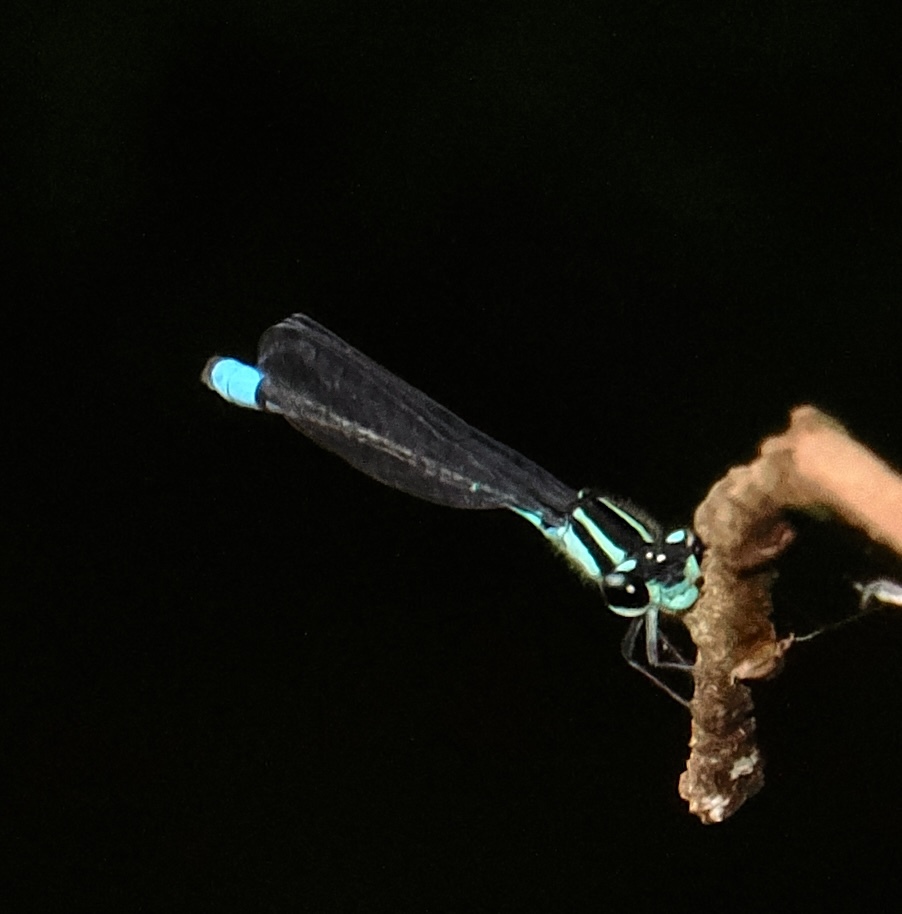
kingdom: Animalia
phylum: Arthropoda
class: Insecta
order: Odonata
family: Coenagrionidae
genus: Acanthagrion
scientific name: Acanthagrion lancea
